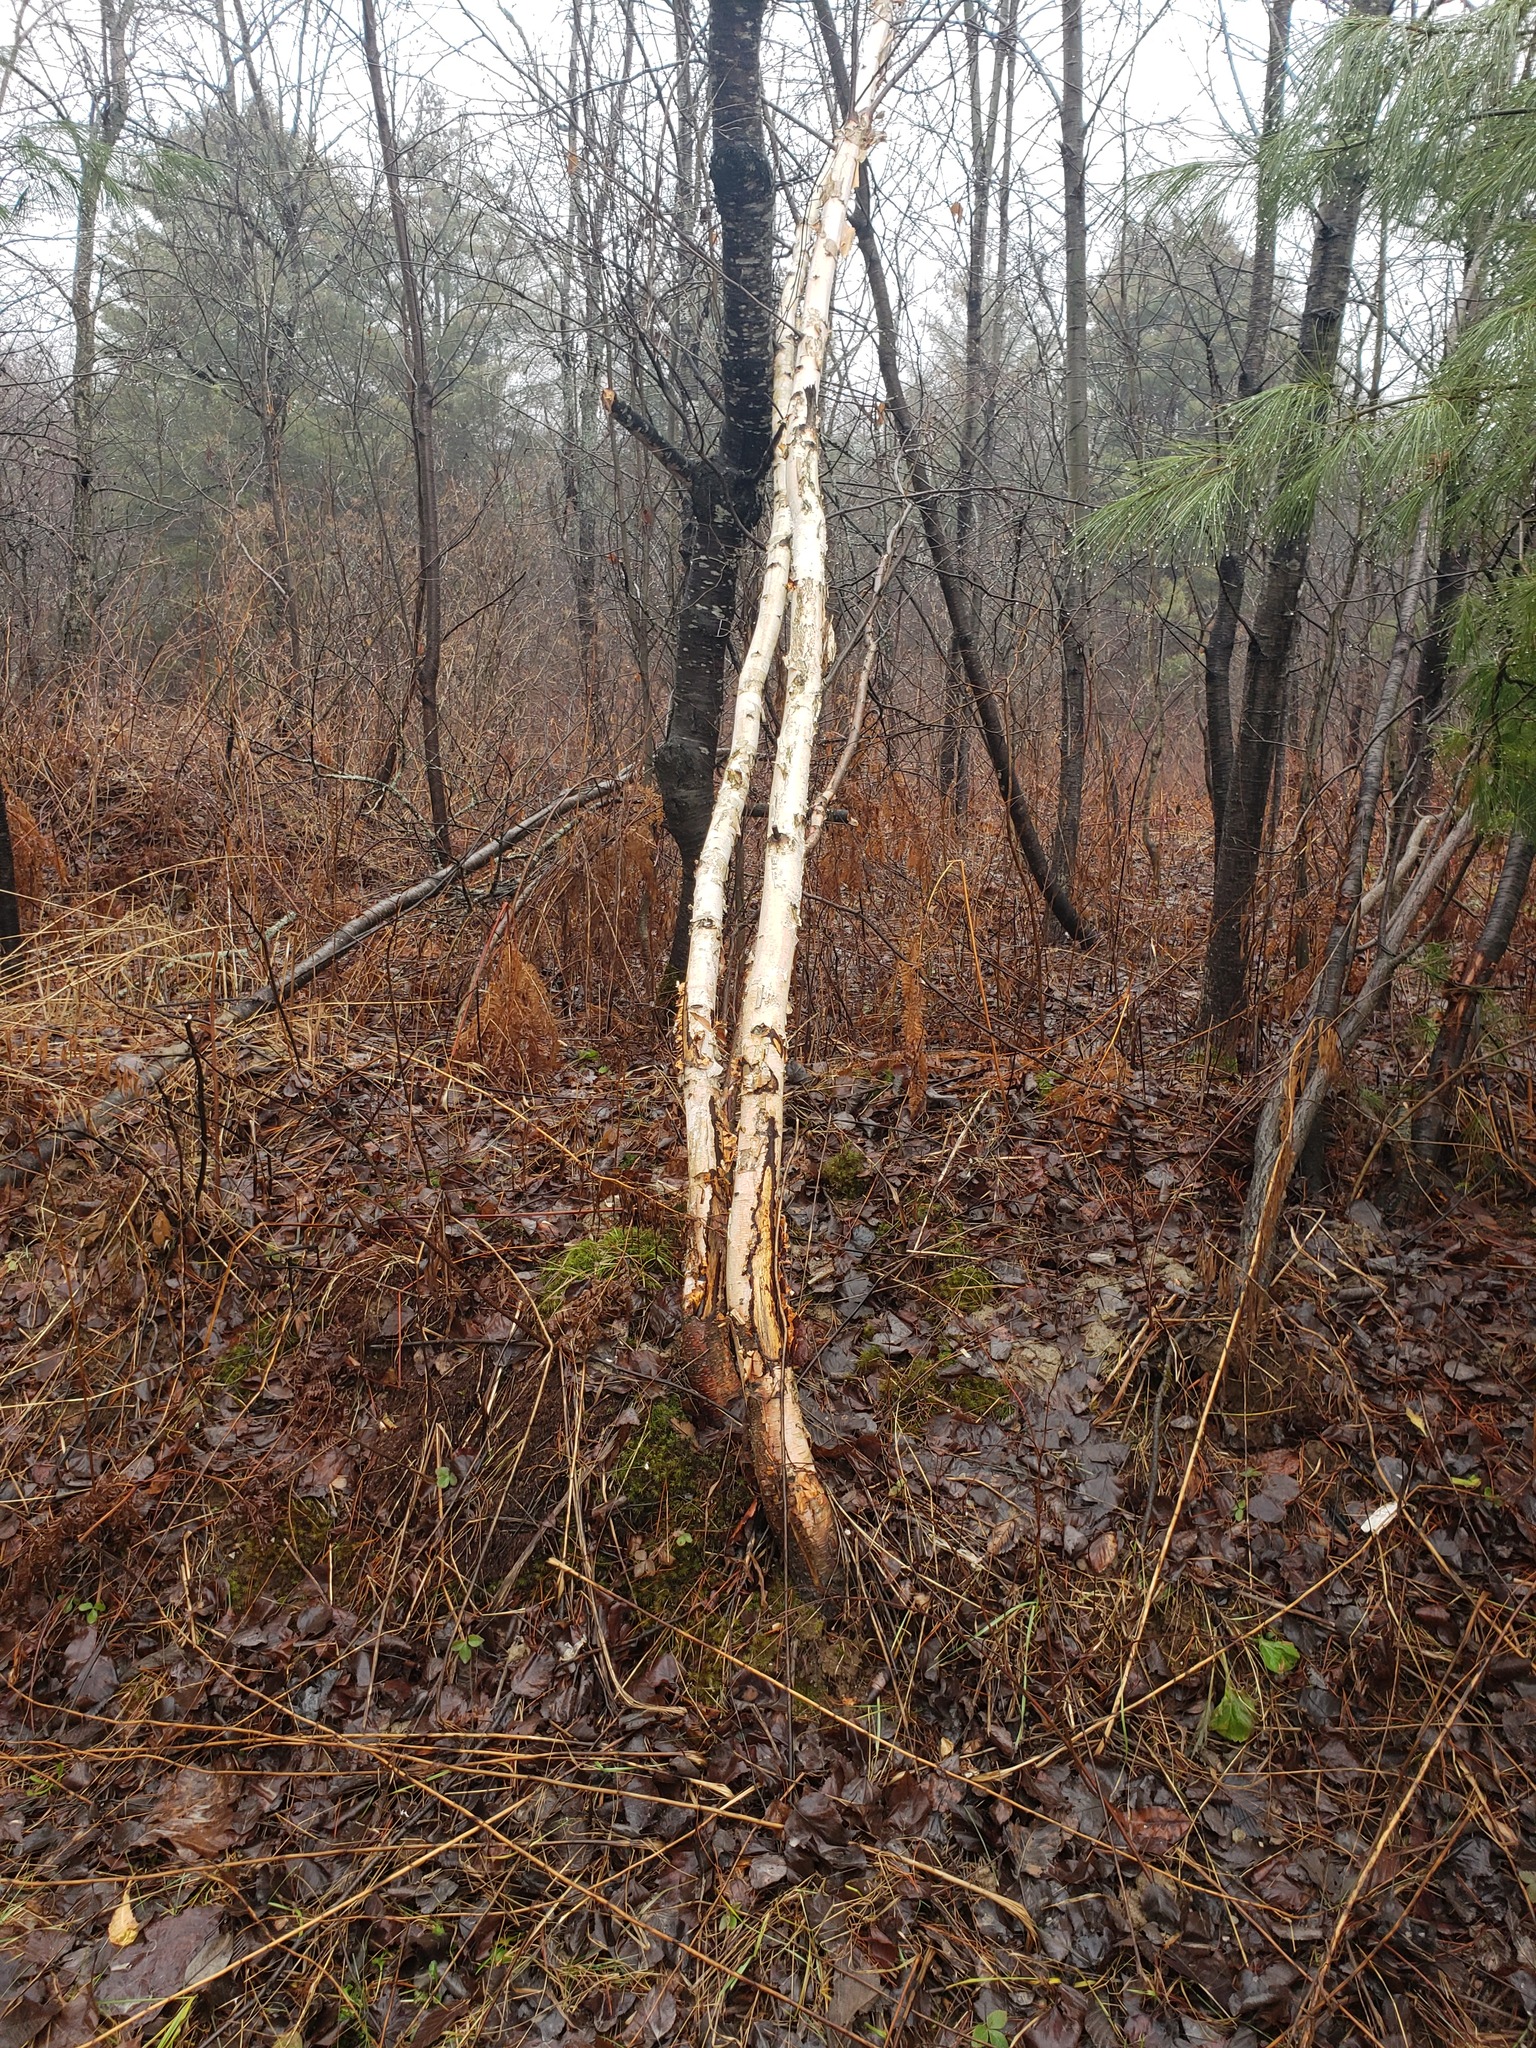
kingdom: Plantae
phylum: Tracheophyta
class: Magnoliopsida
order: Fagales
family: Betulaceae
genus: Betula
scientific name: Betula papyrifera
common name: Paper birch
